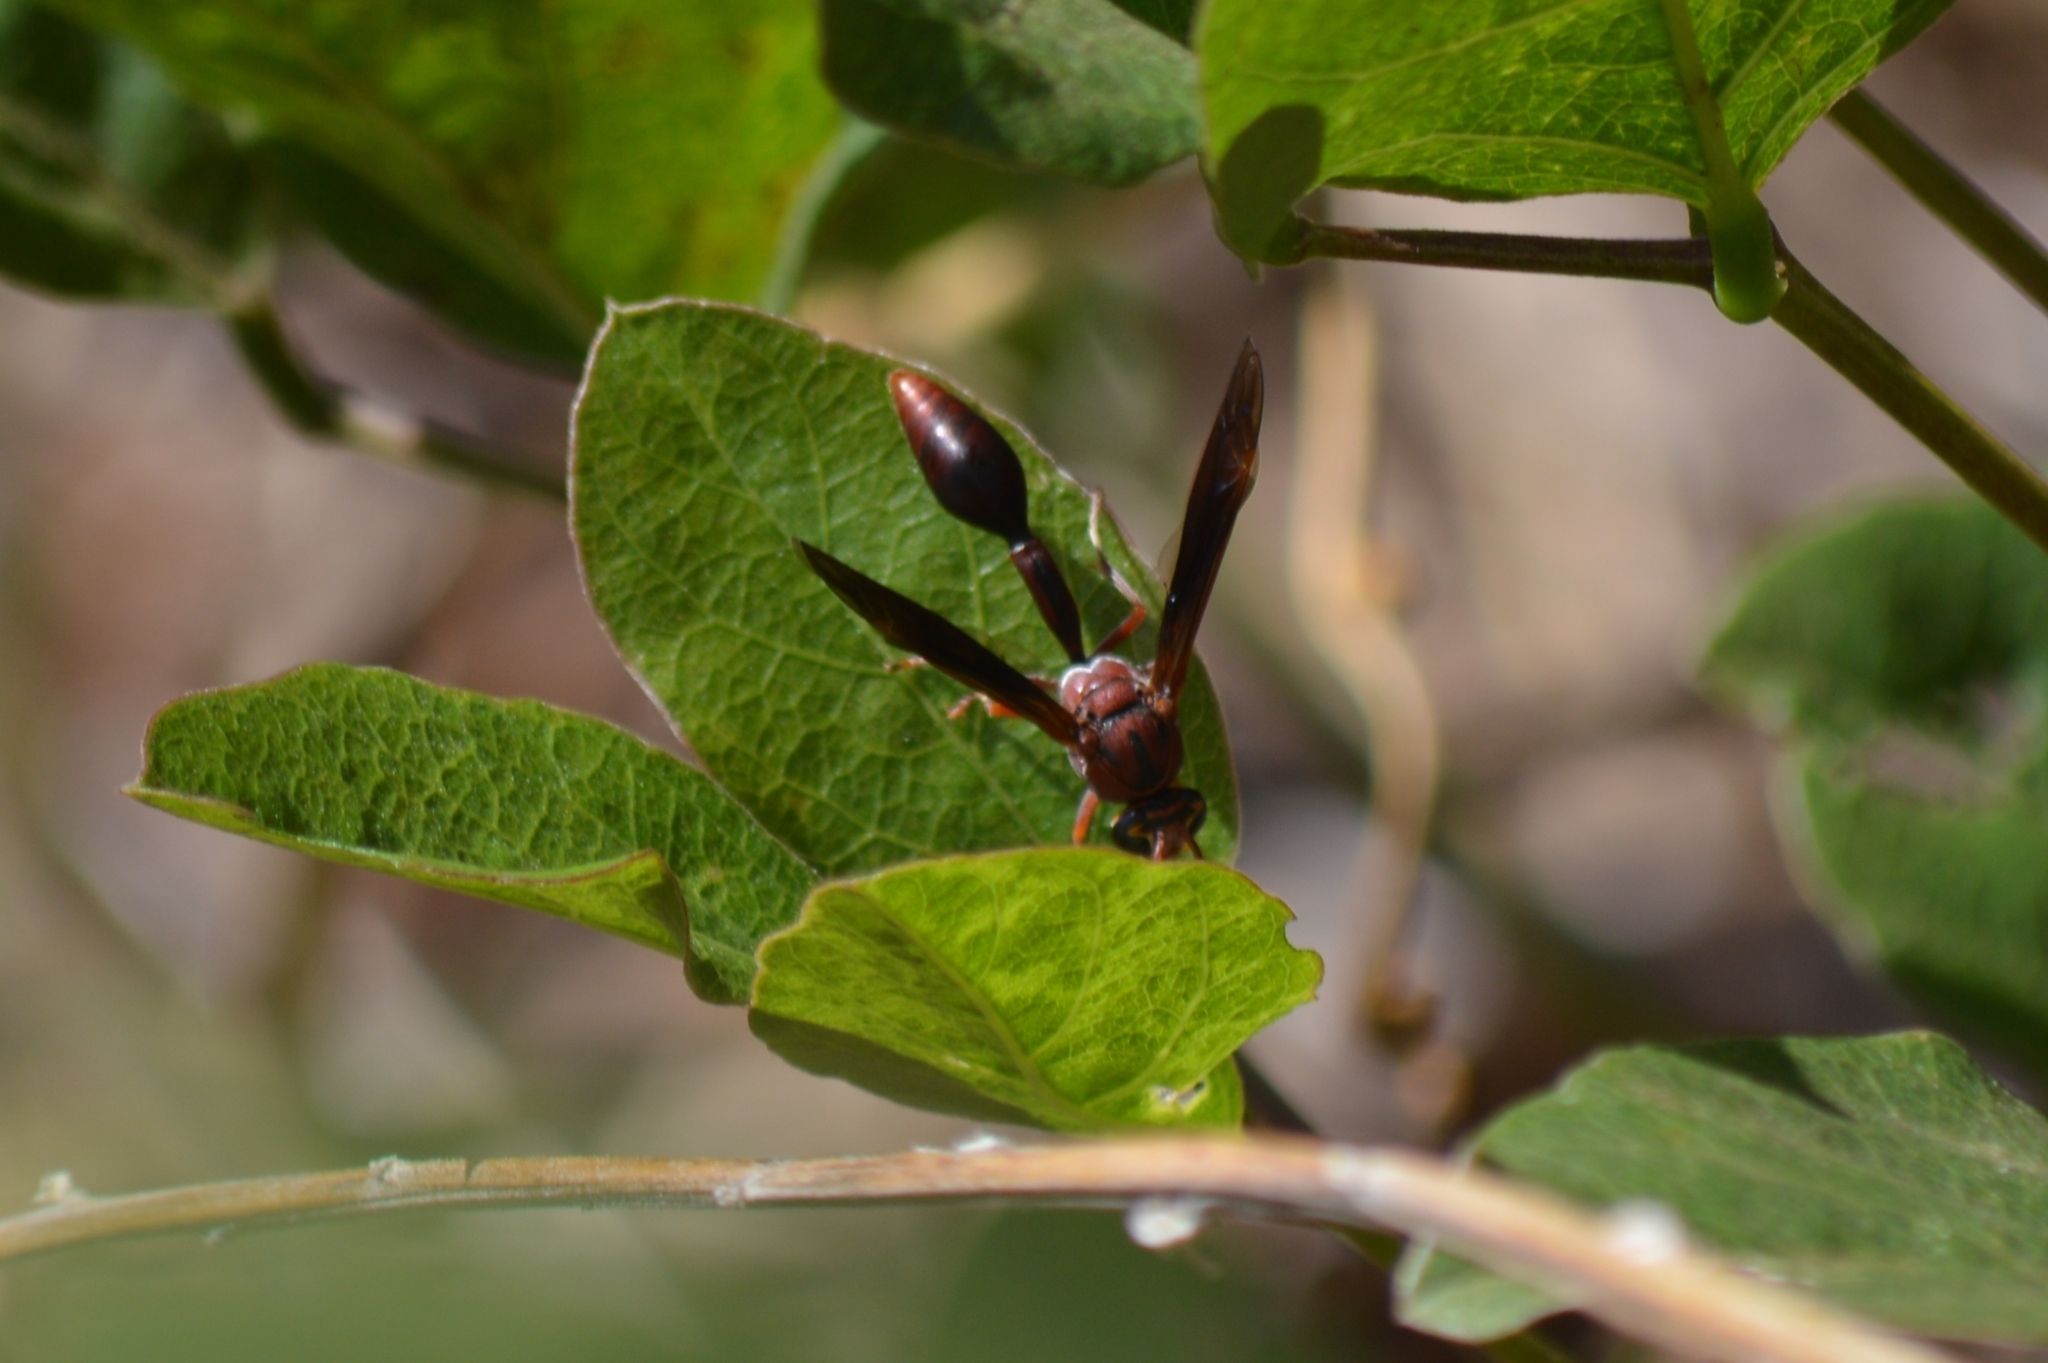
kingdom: Animalia
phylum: Arthropoda
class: Insecta
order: Hymenoptera
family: Eumenidae
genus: Zeta
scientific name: Zeta argillaceum
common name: Potter wasp
